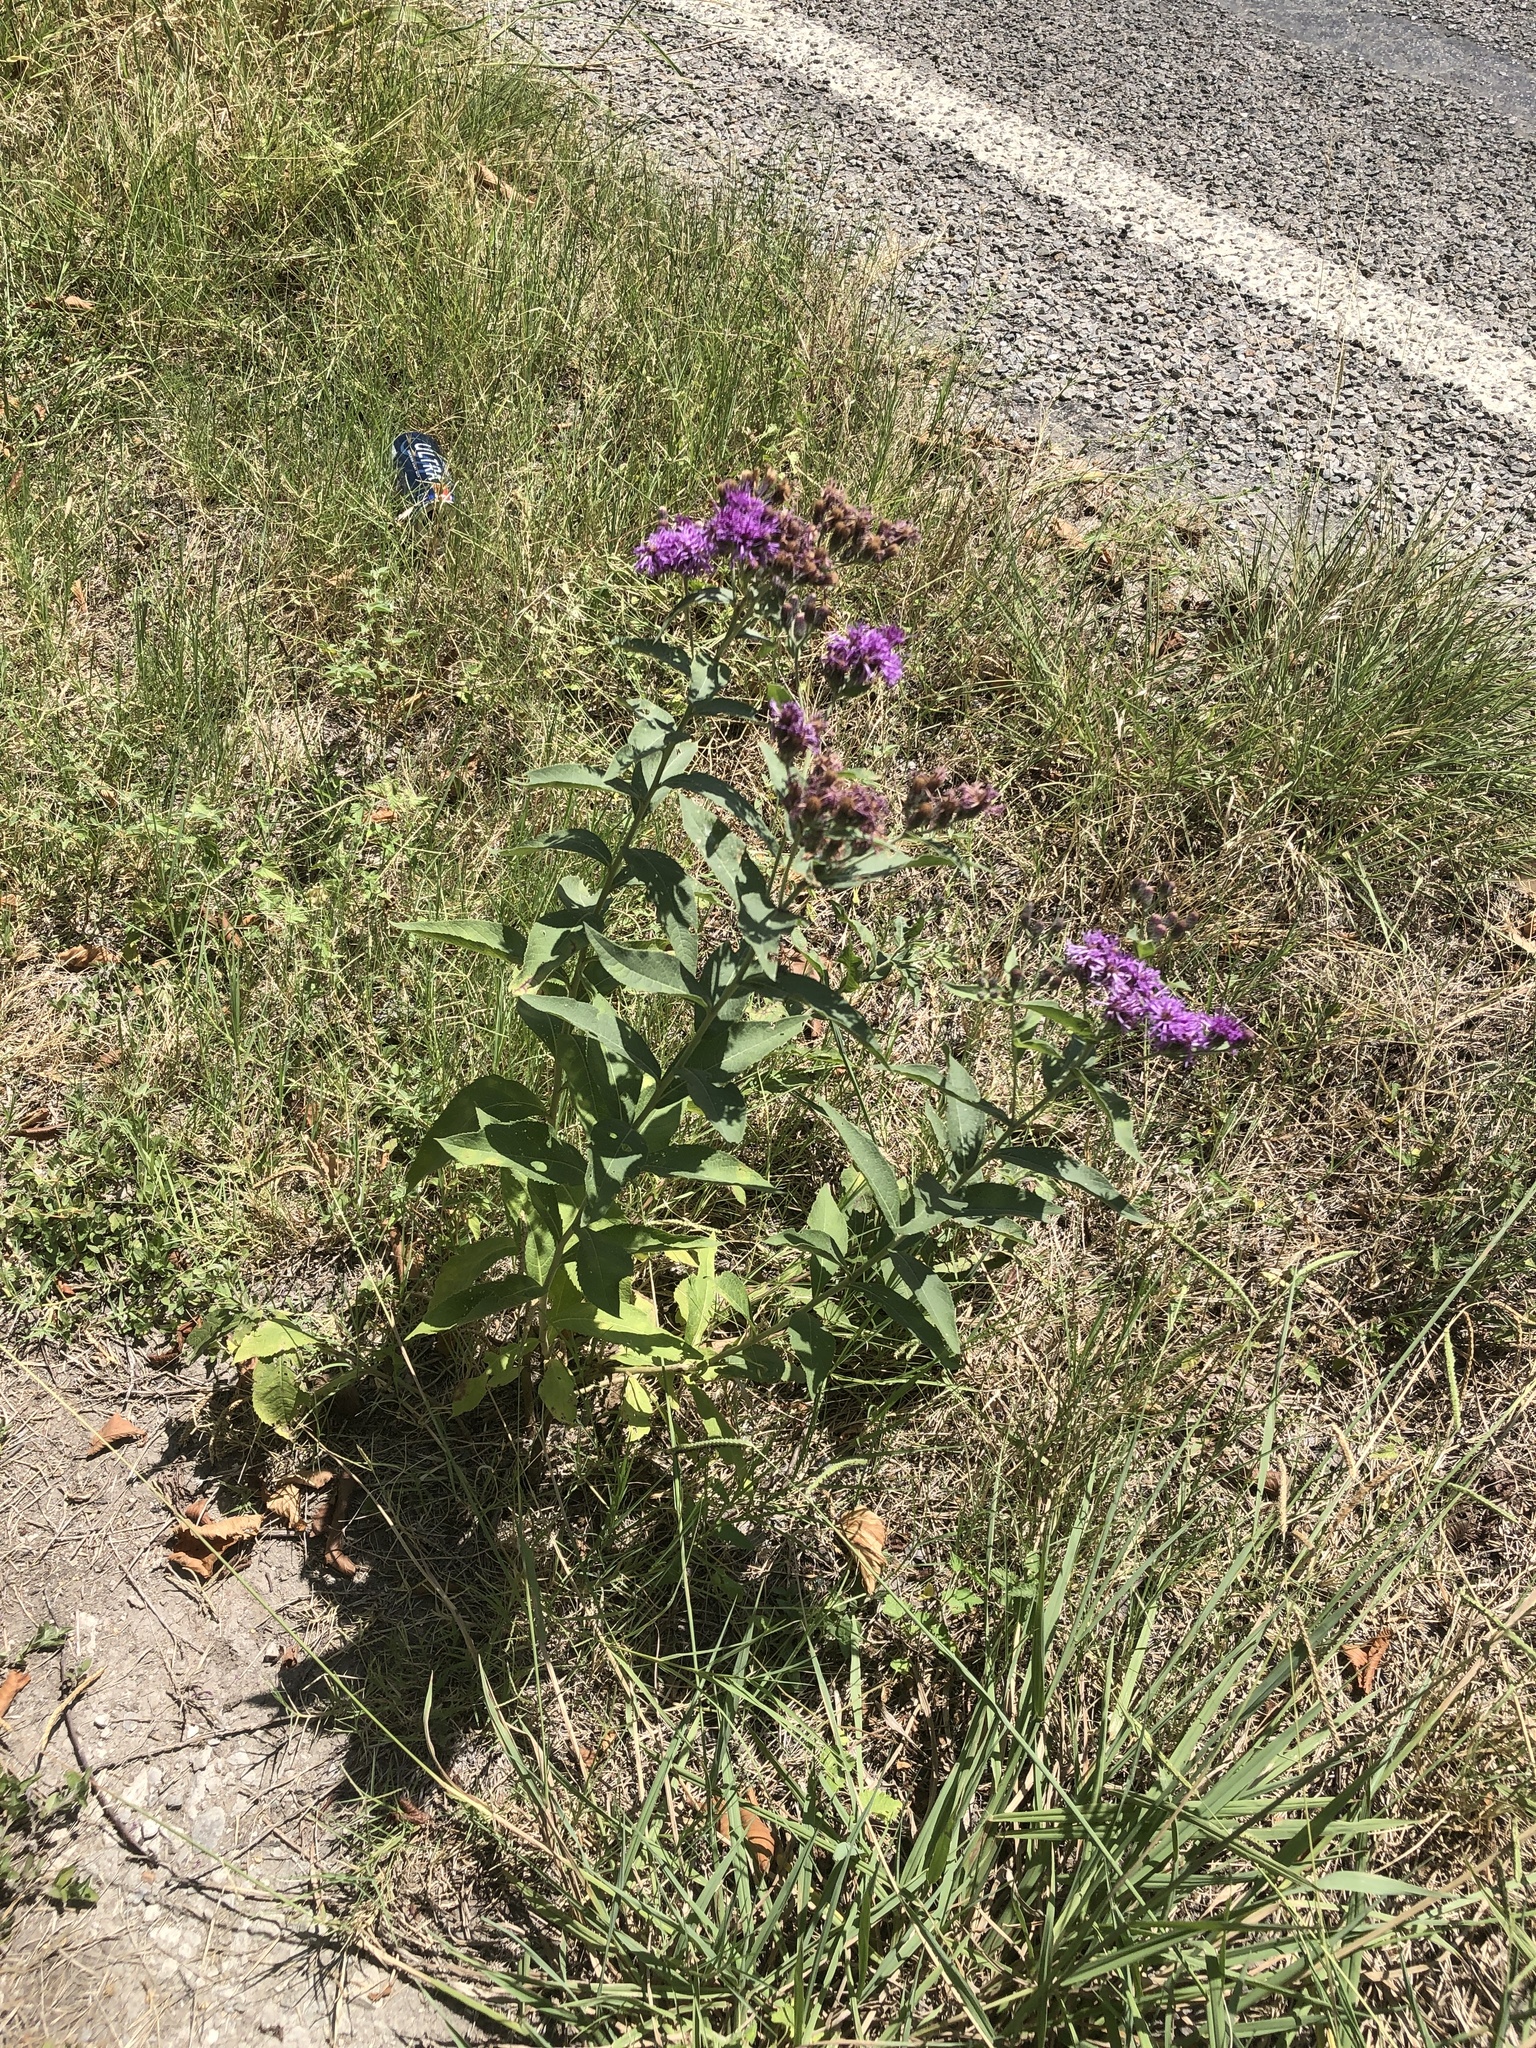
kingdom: Plantae
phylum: Tracheophyta
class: Magnoliopsida
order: Asterales
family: Asteraceae
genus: Vernonia
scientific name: Vernonia baldwinii
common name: Western ironweed
